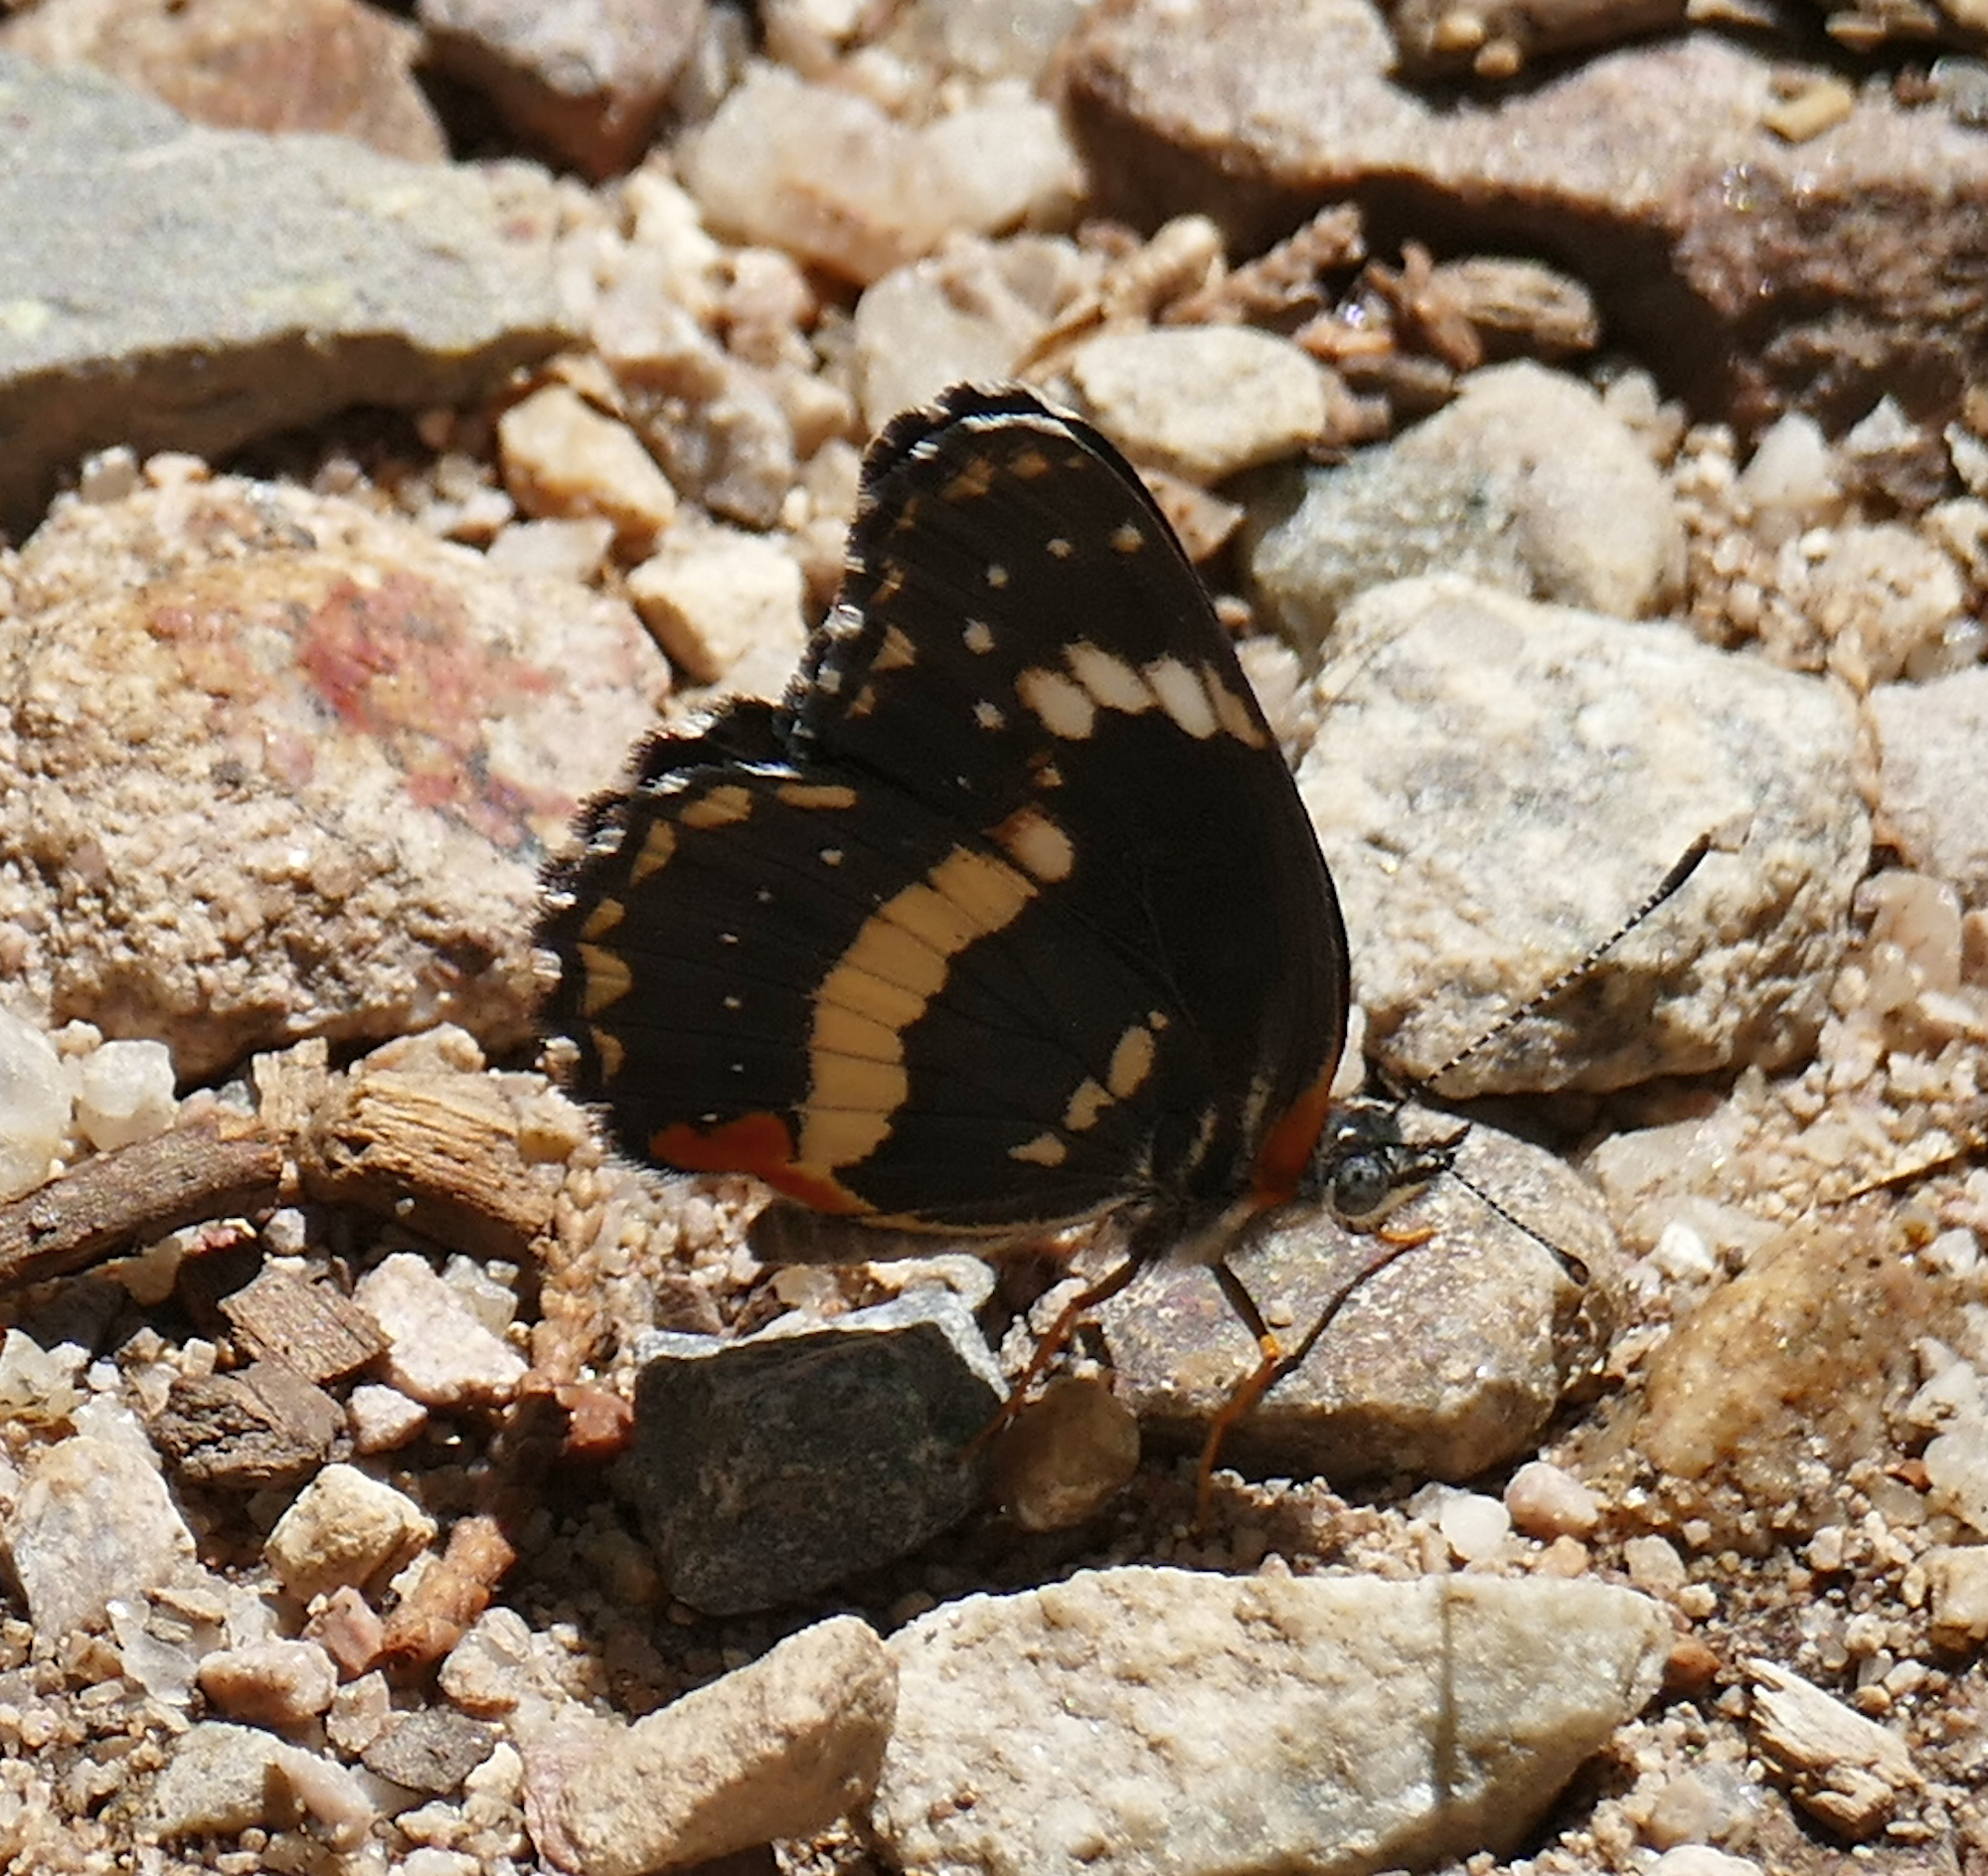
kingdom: Animalia
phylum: Arthropoda
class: Insecta
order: Lepidoptera
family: Nymphalidae
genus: Chlosyne
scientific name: Chlosyne lacinia
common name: Bordered patch
